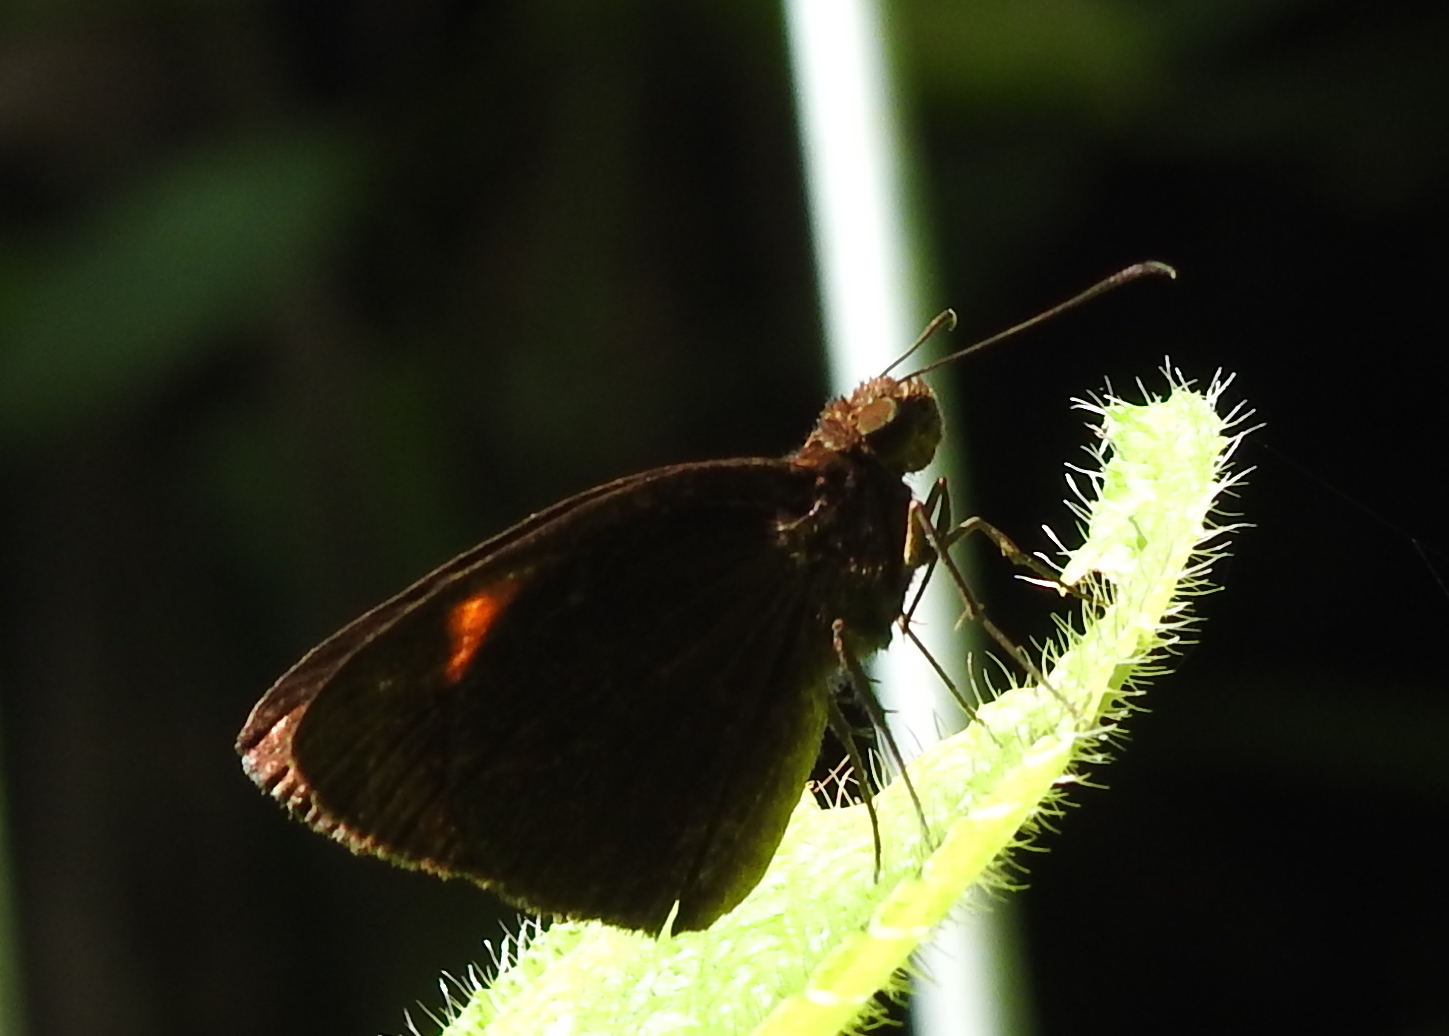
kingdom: Animalia
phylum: Arthropoda
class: Insecta
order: Lepidoptera
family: Hesperiidae
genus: Koruthaialos
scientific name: Koruthaialos rubecula
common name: Narrow-banded velvet bob
